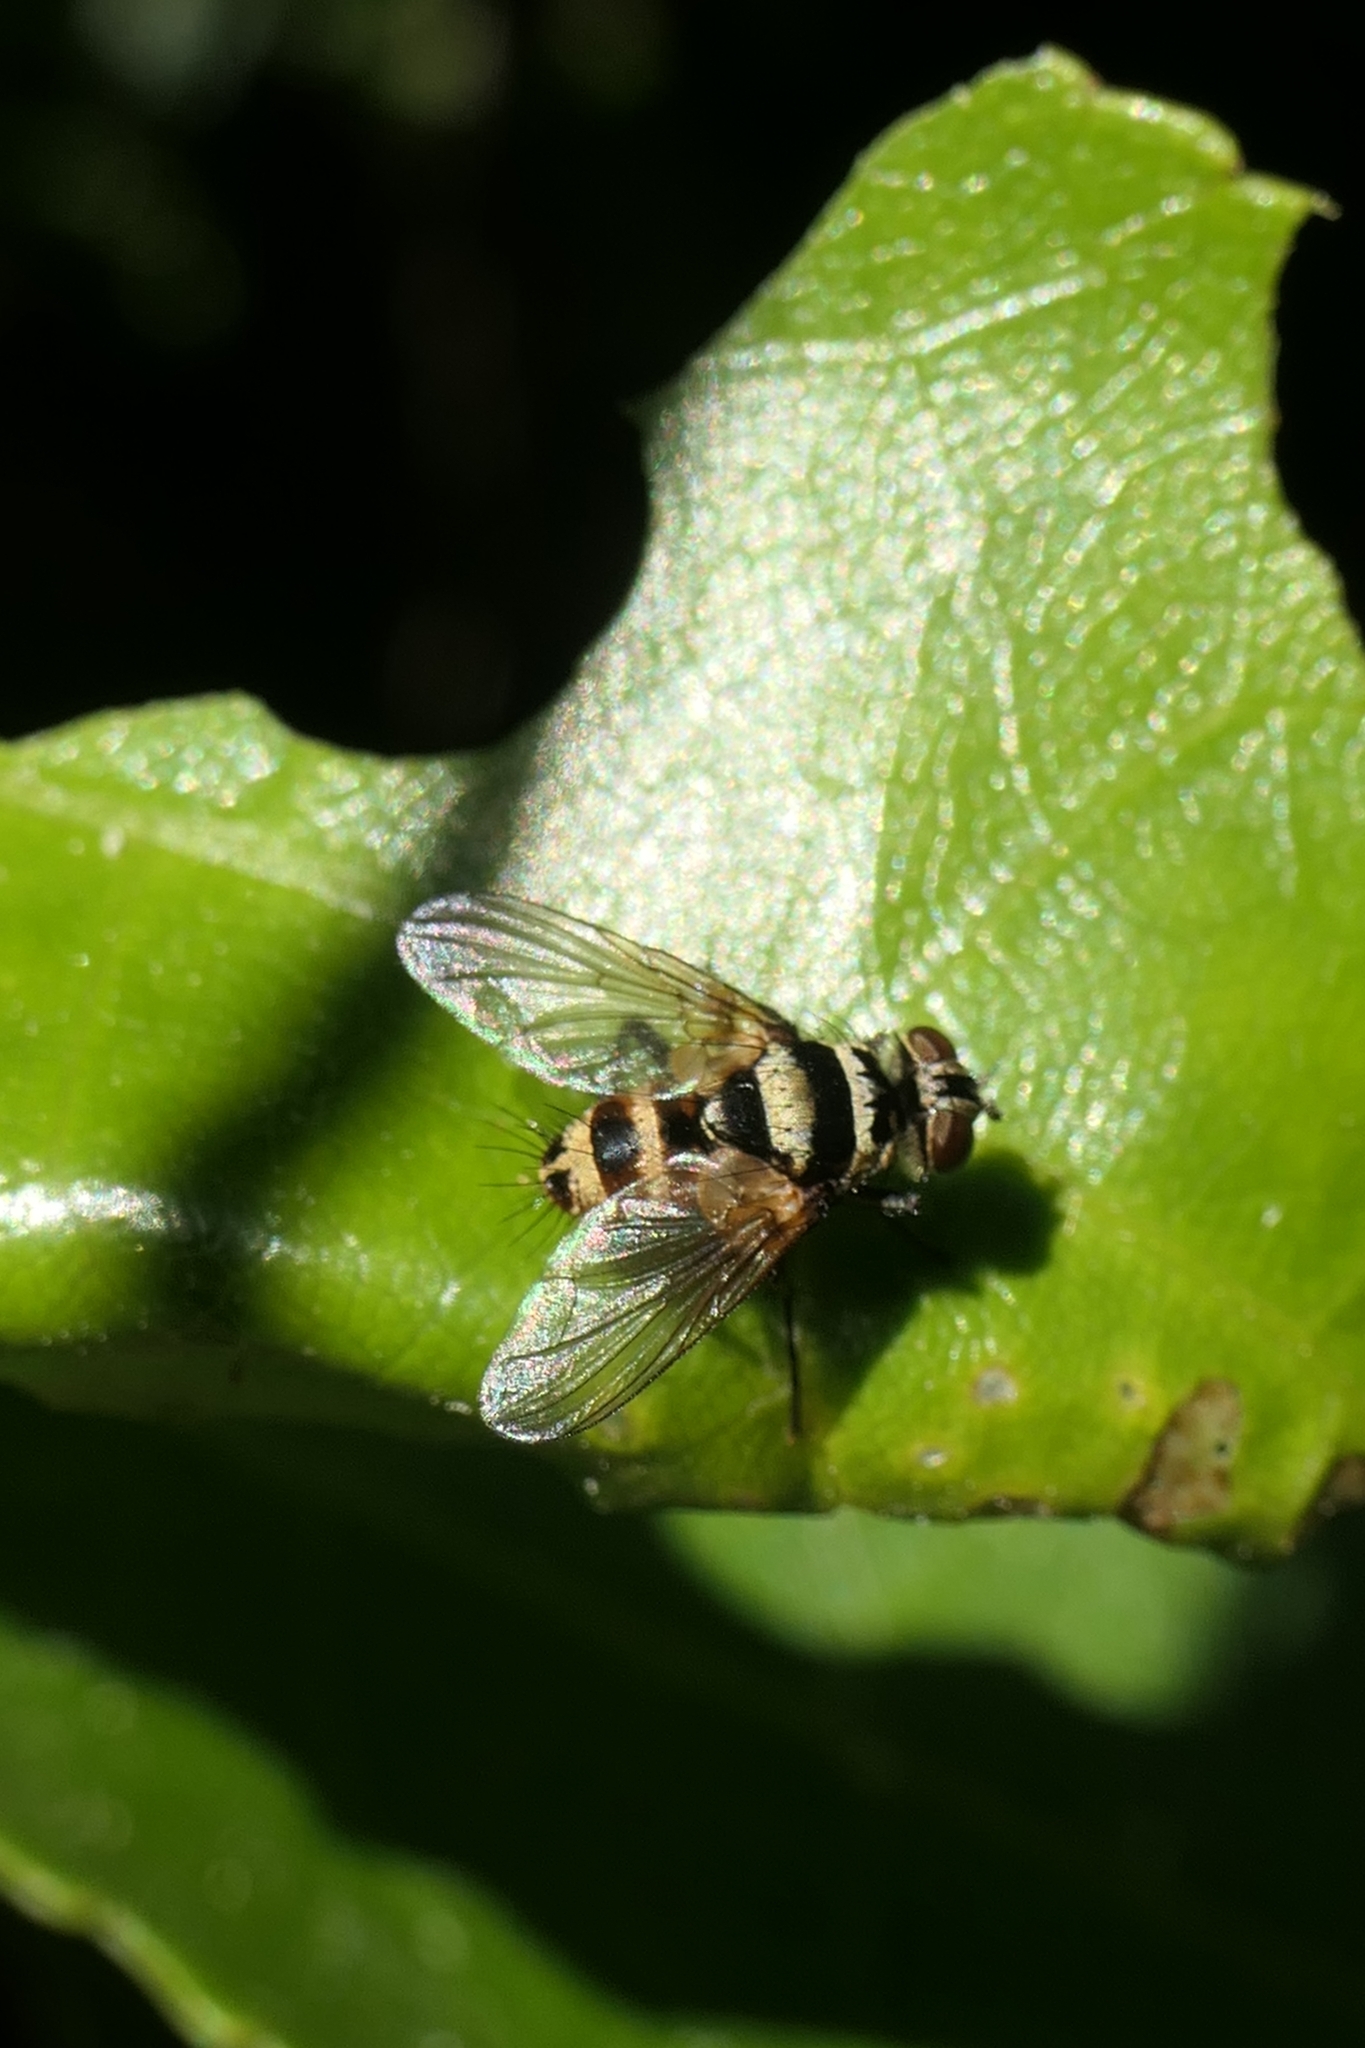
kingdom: Animalia
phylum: Arthropoda
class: Insecta
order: Diptera
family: Tachinidae
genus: Trigonospila
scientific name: Trigonospila brevifacies
